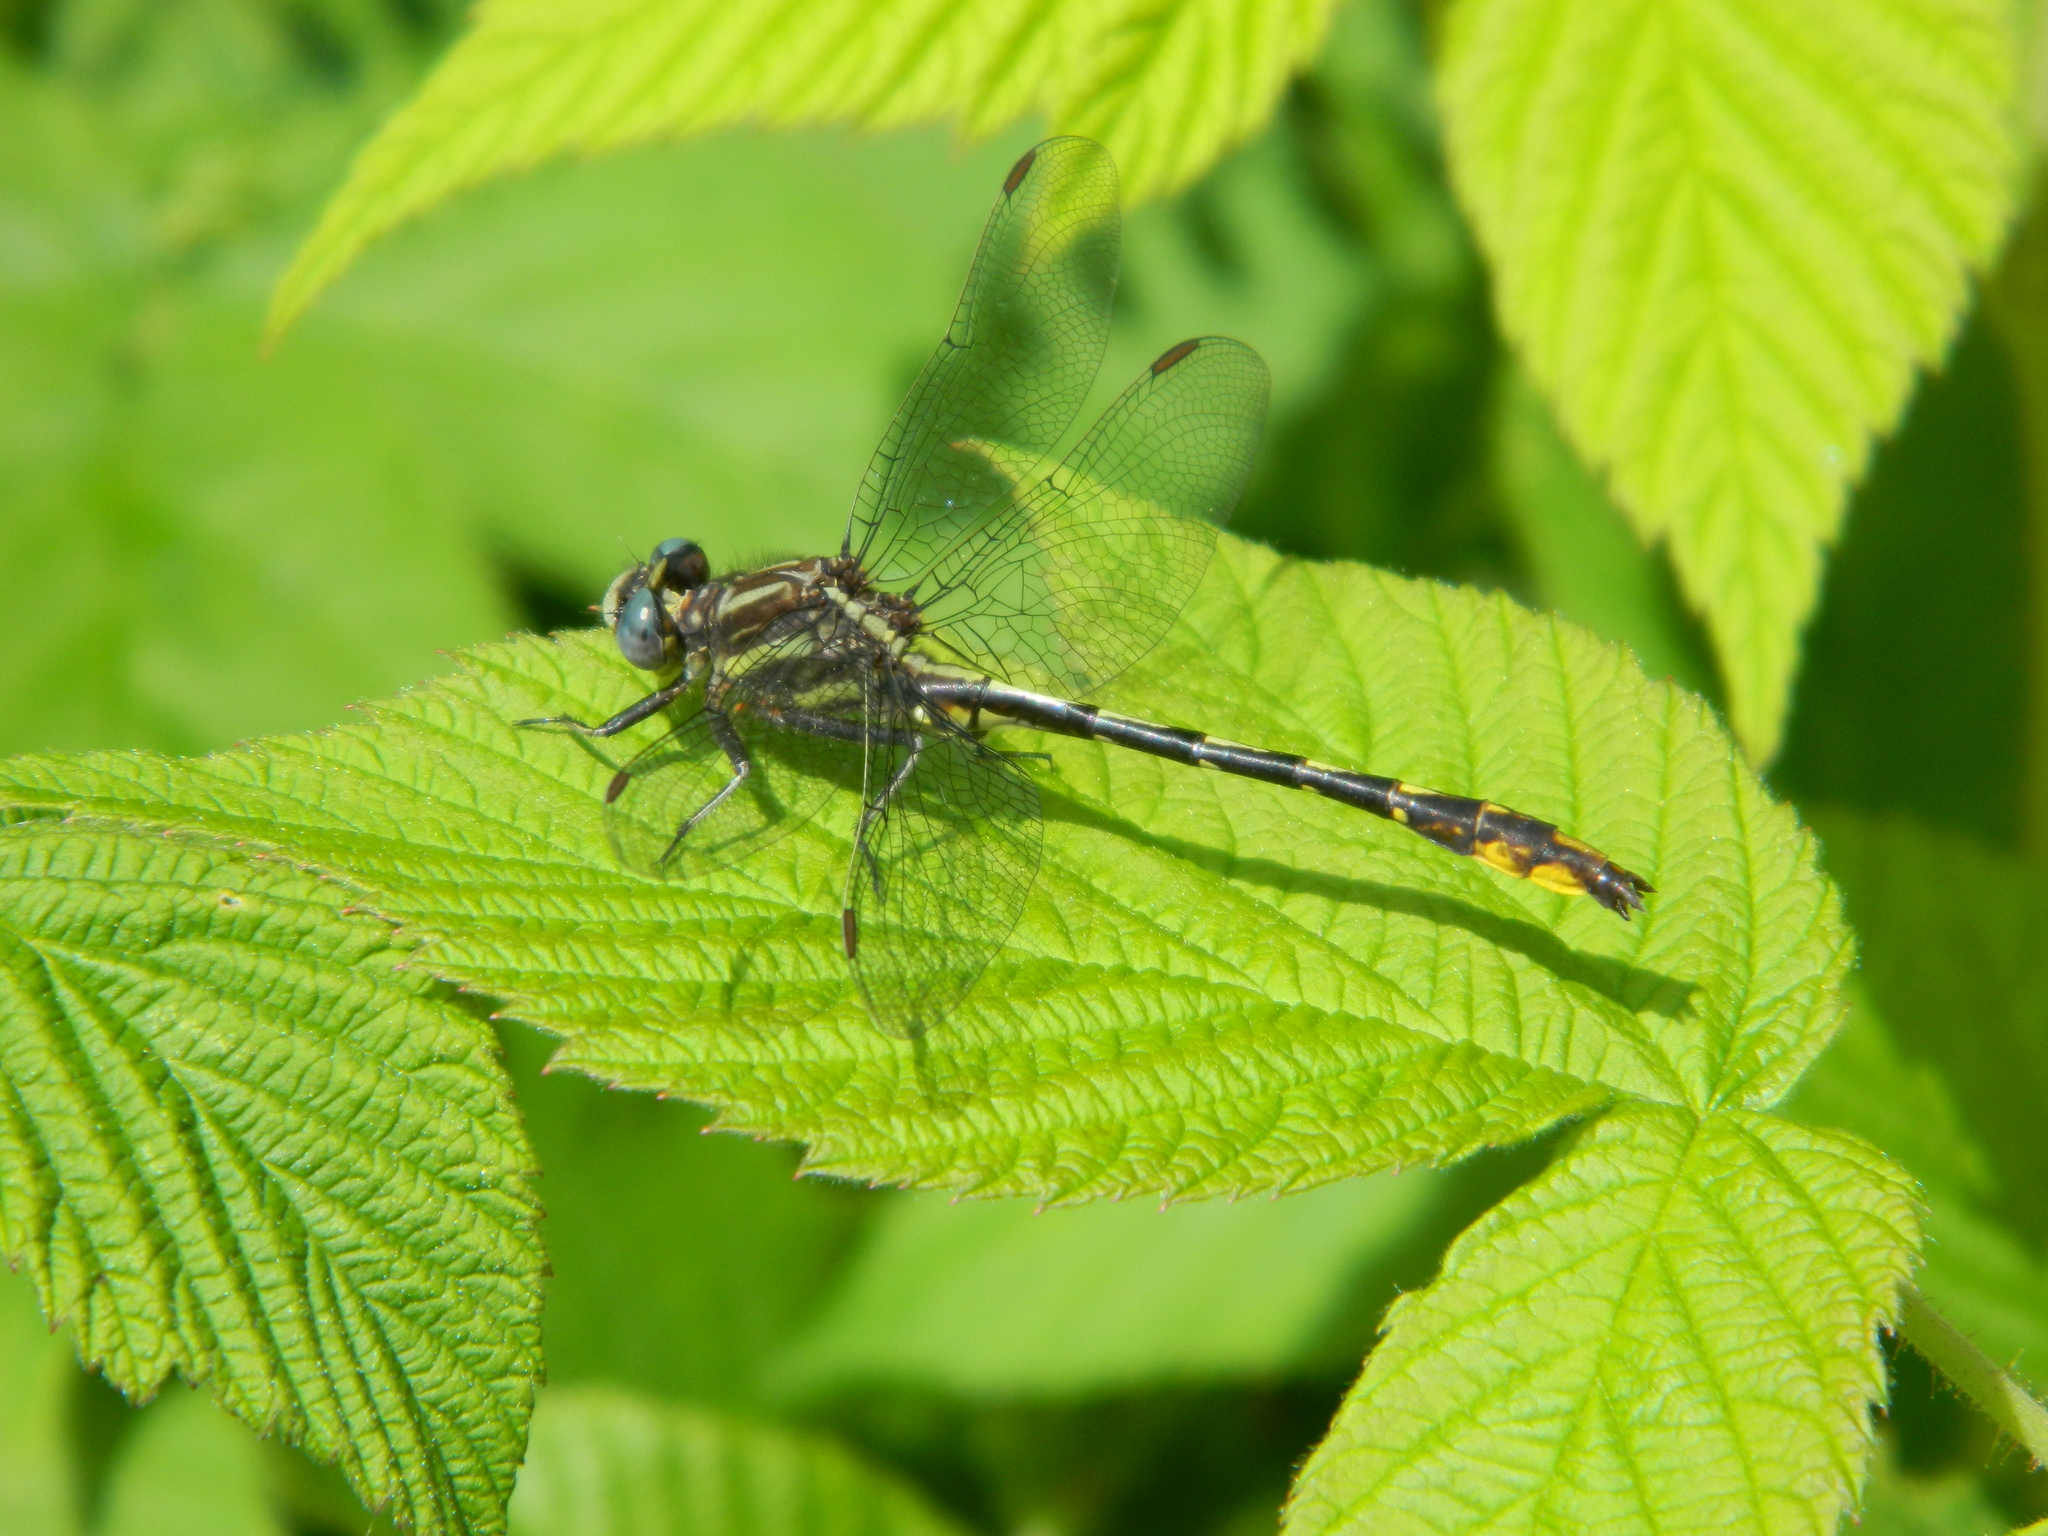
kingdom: Animalia
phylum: Arthropoda
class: Insecta
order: Odonata
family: Gomphidae
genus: Phanogomphus
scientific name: Phanogomphus exilis
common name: Lancet clubtail
